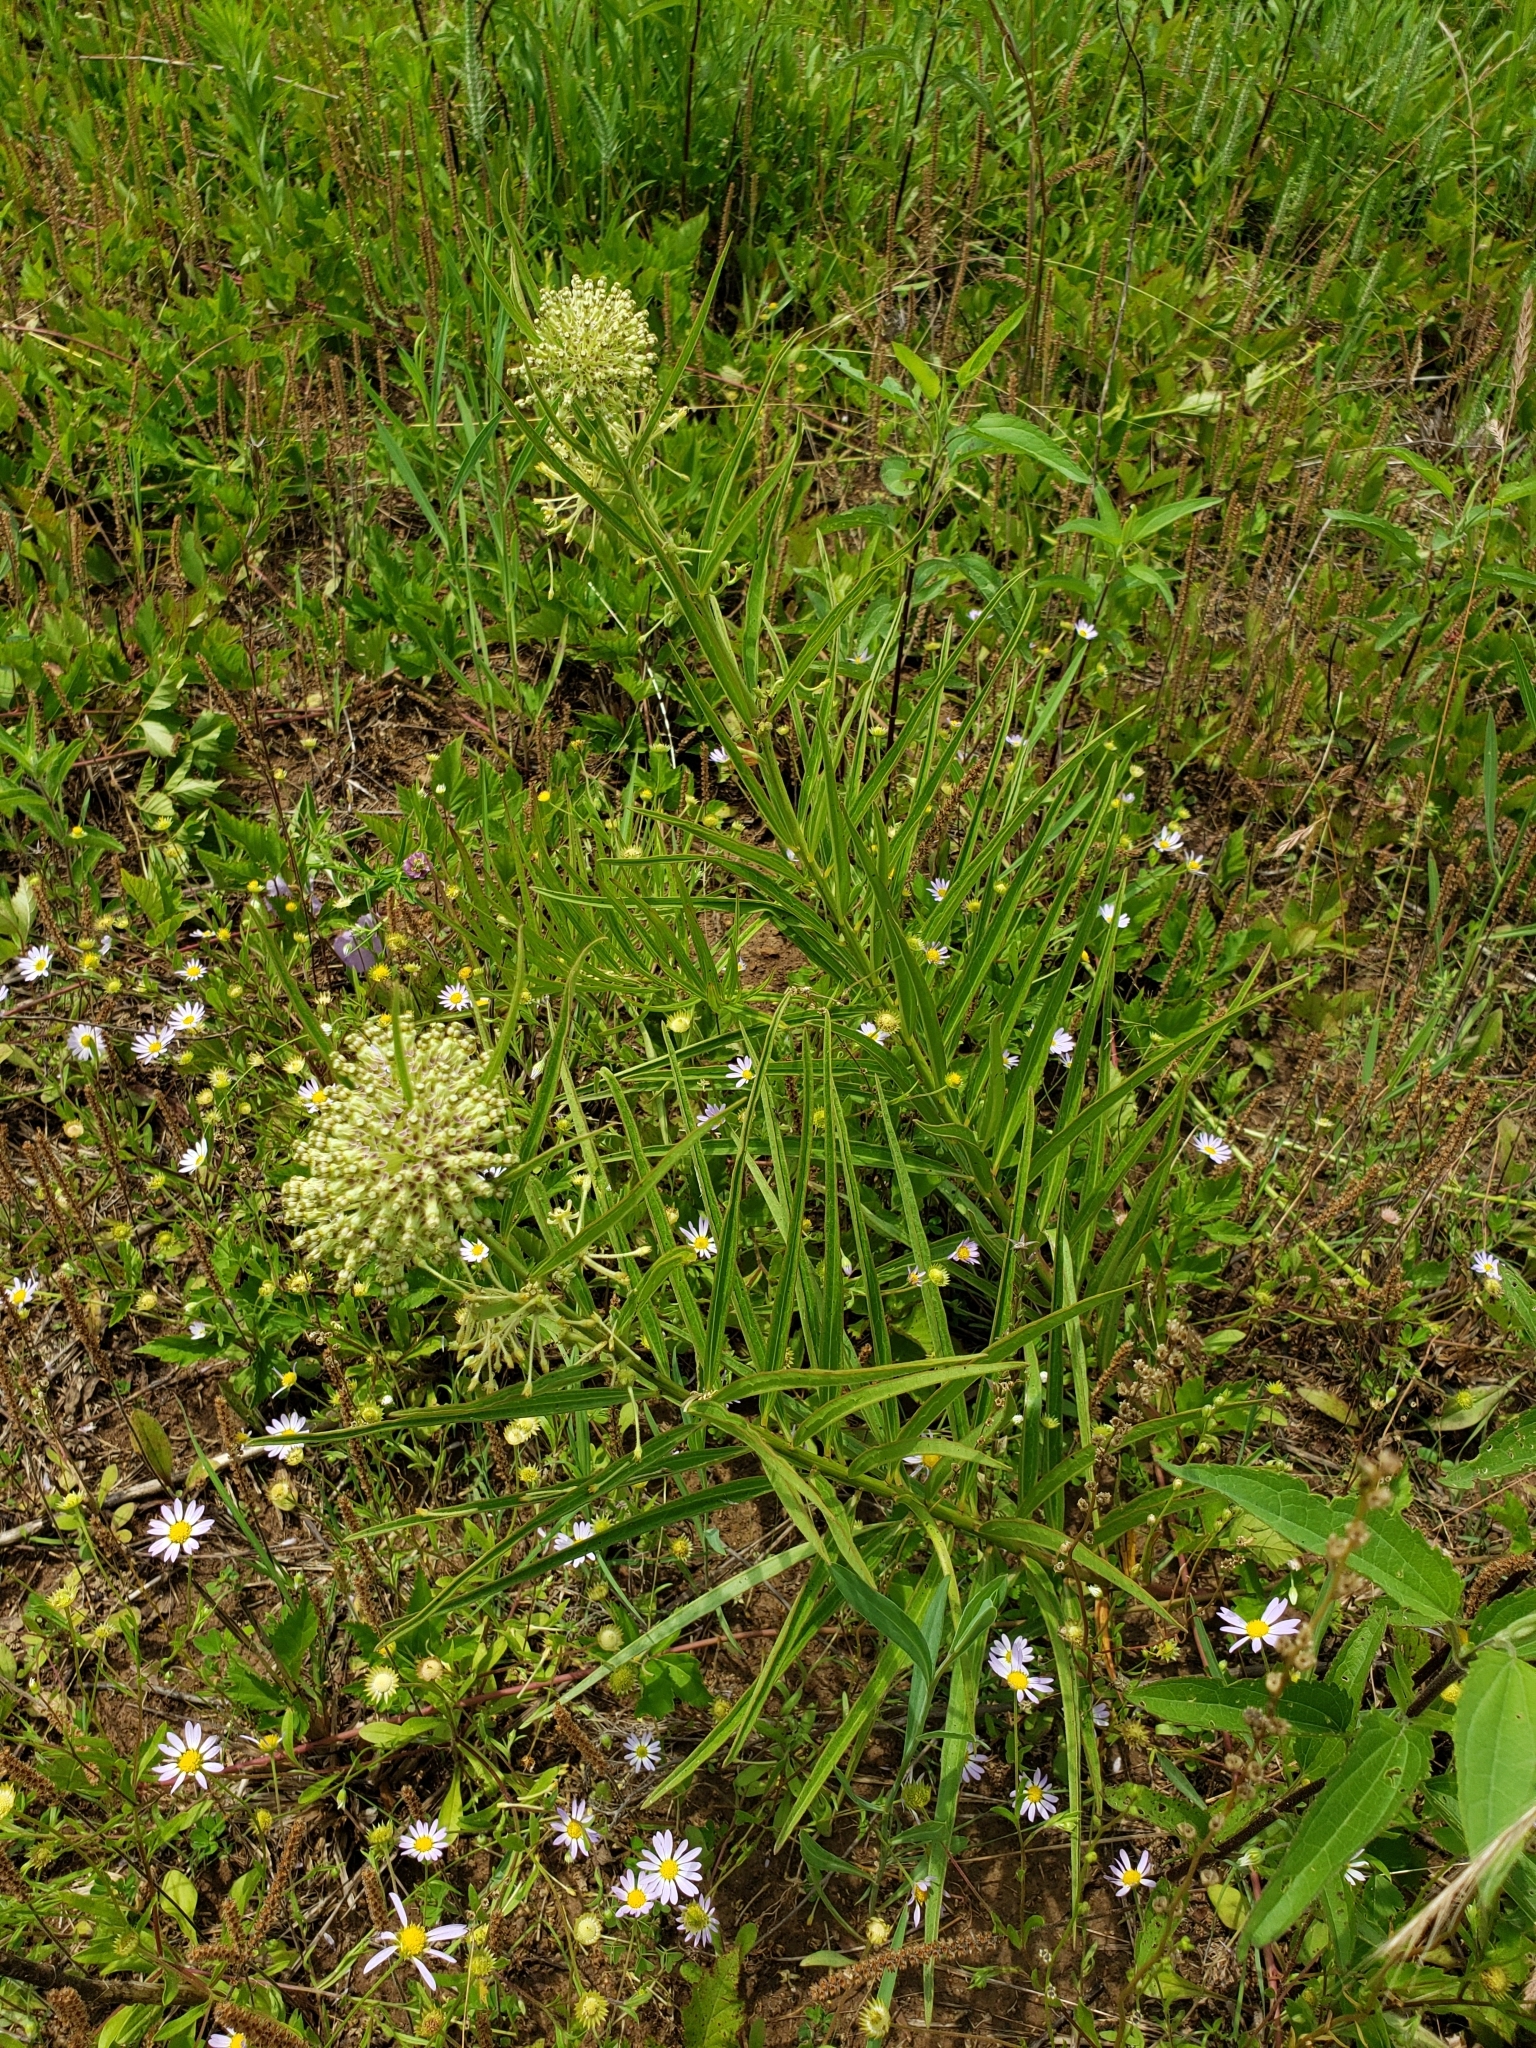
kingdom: Plantae
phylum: Tracheophyta
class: Magnoliopsida
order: Gentianales
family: Apocynaceae
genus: Asclepias
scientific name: Asclepias hirtella
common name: Prairie milkweed
